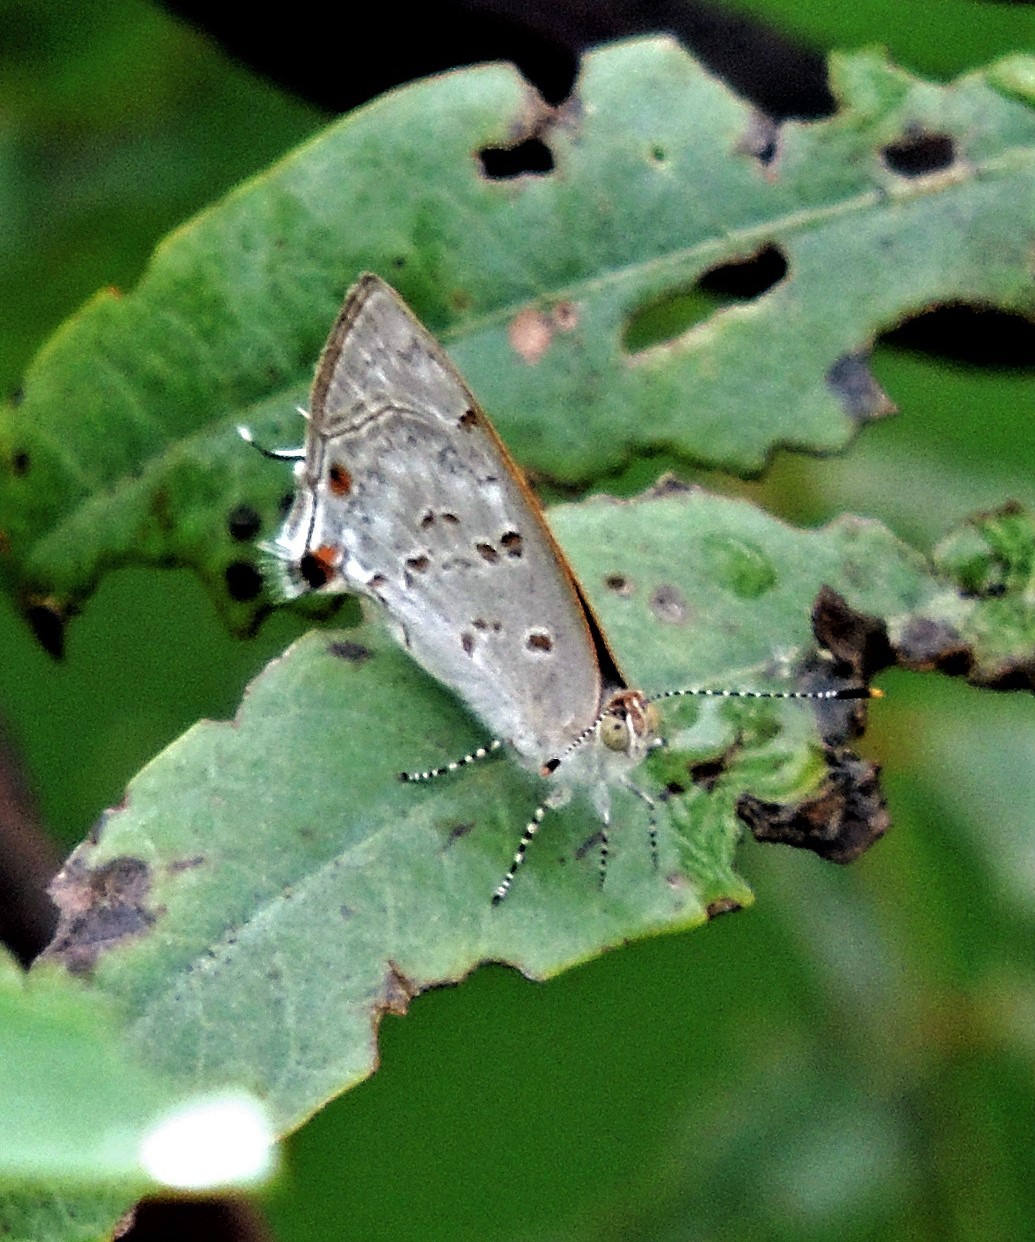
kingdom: Animalia
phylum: Arthropoda
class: Insecta
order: Lepidoptera
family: Lycaenidae
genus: Thecla
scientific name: Thecla una
